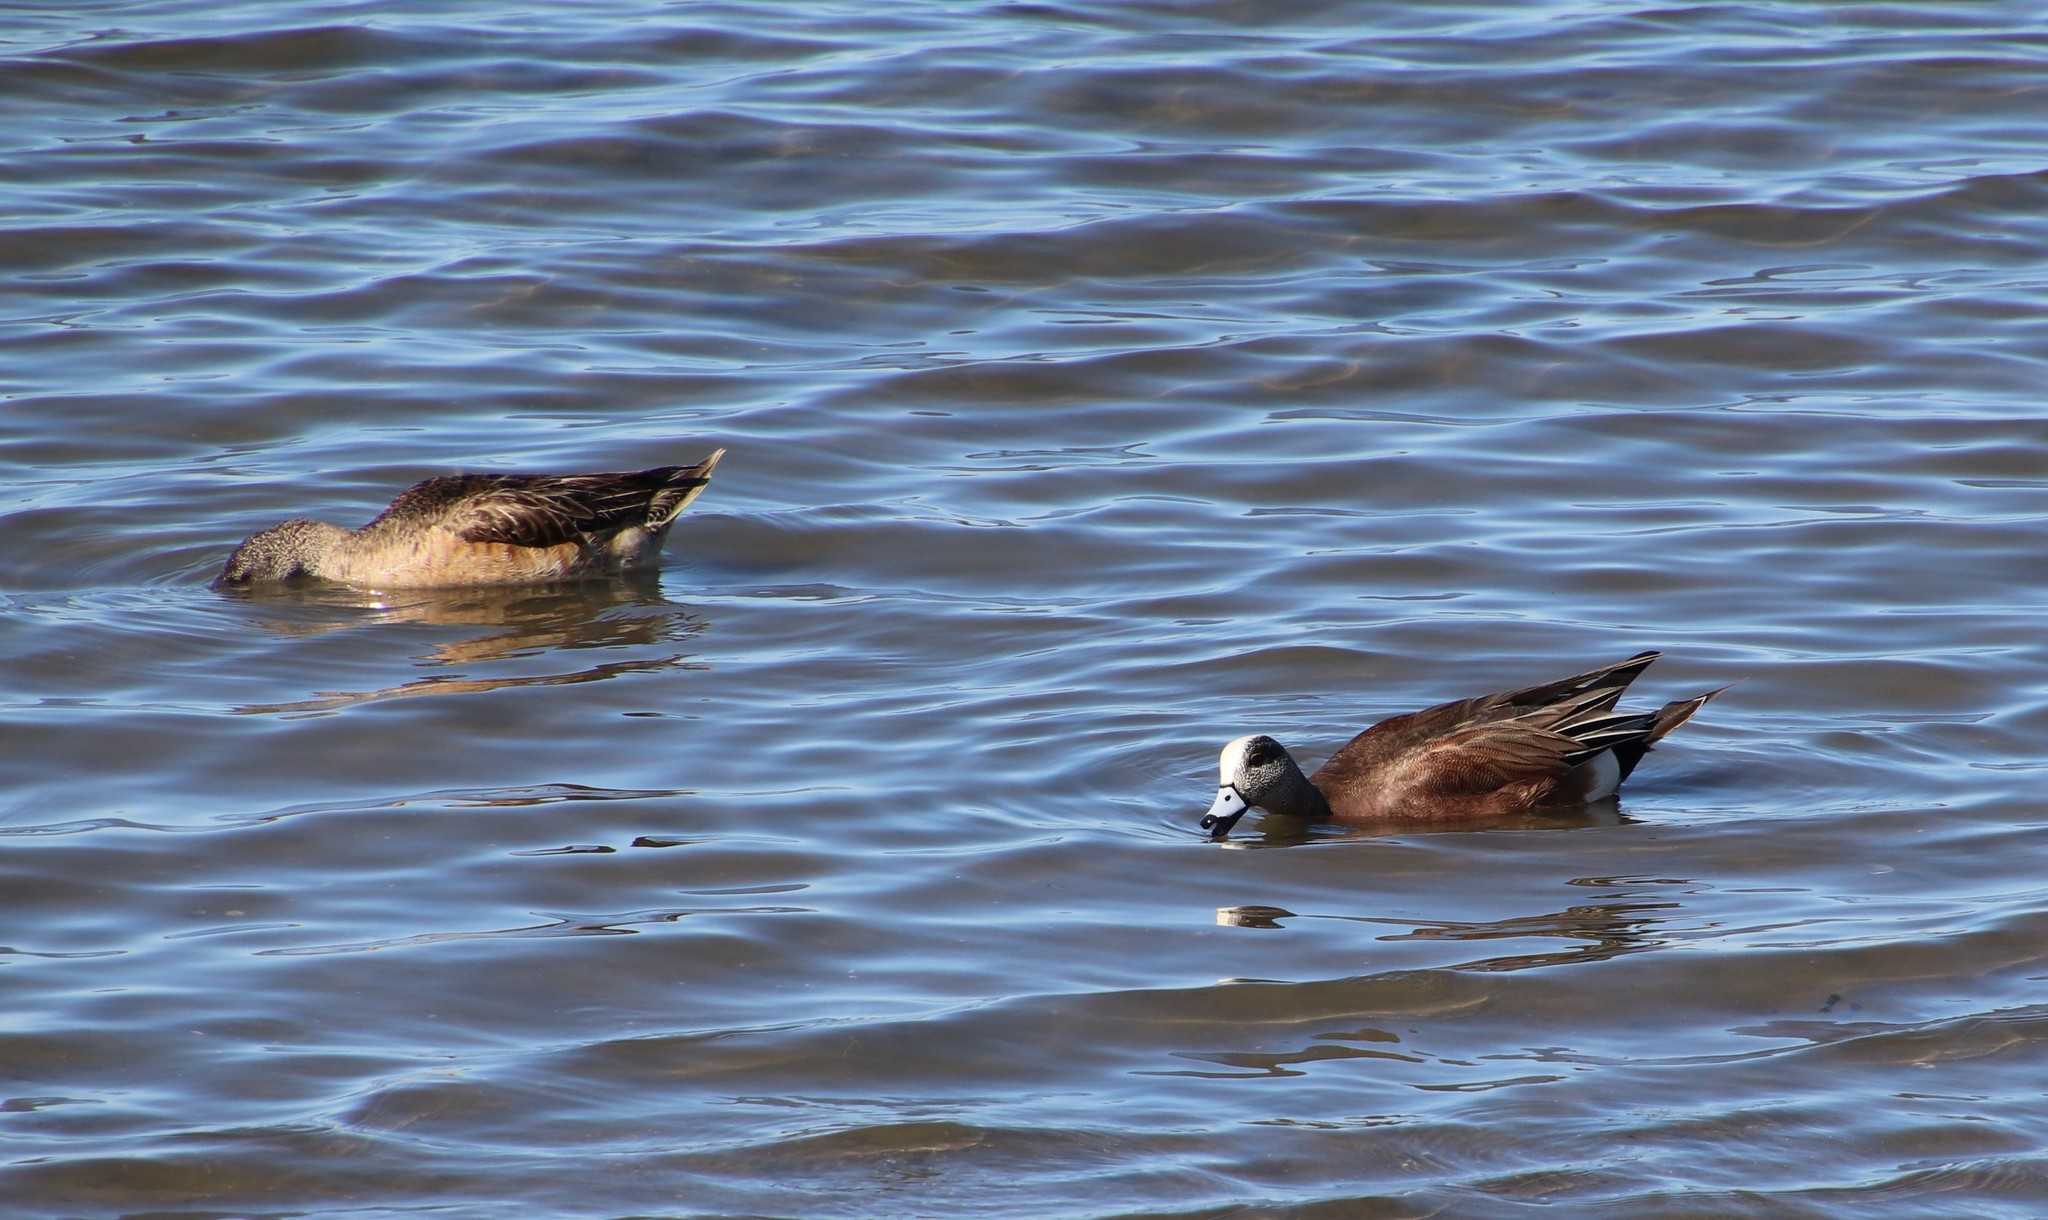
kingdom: Animalia
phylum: Chordata
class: Aves
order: Anseriformes
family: Anatidae
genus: Mareca
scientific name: Mareca americana
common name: American wigeon
